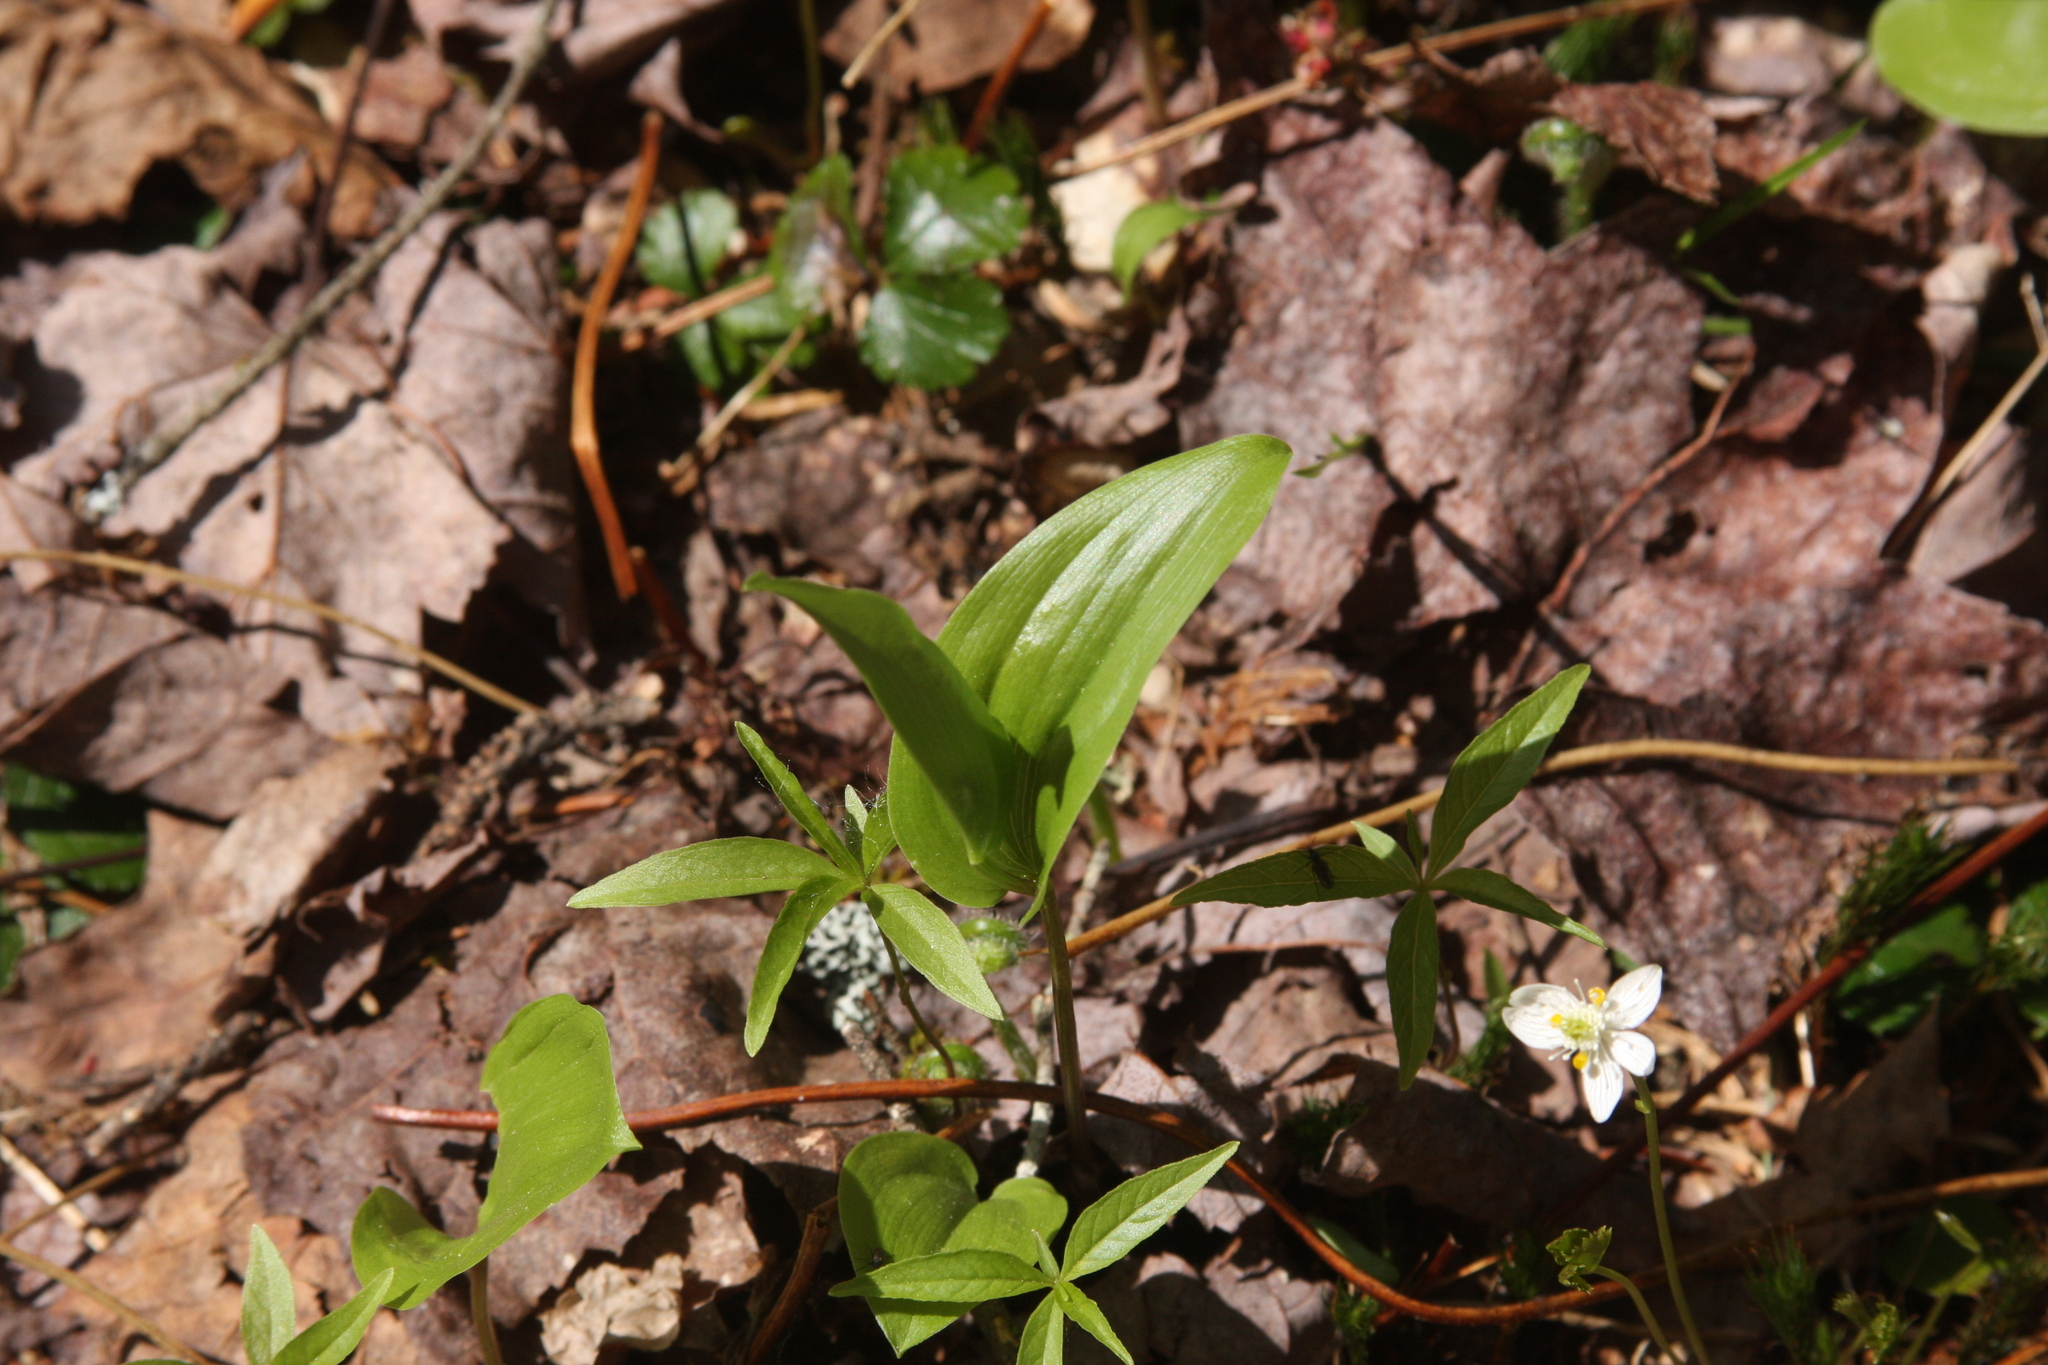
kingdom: Plantae
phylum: Tracheophyta
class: Liliopsida
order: Asparagales
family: Asparagaceae
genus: Maianthemum
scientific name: Maianthemum canadense
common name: False lily-of-the-valley
